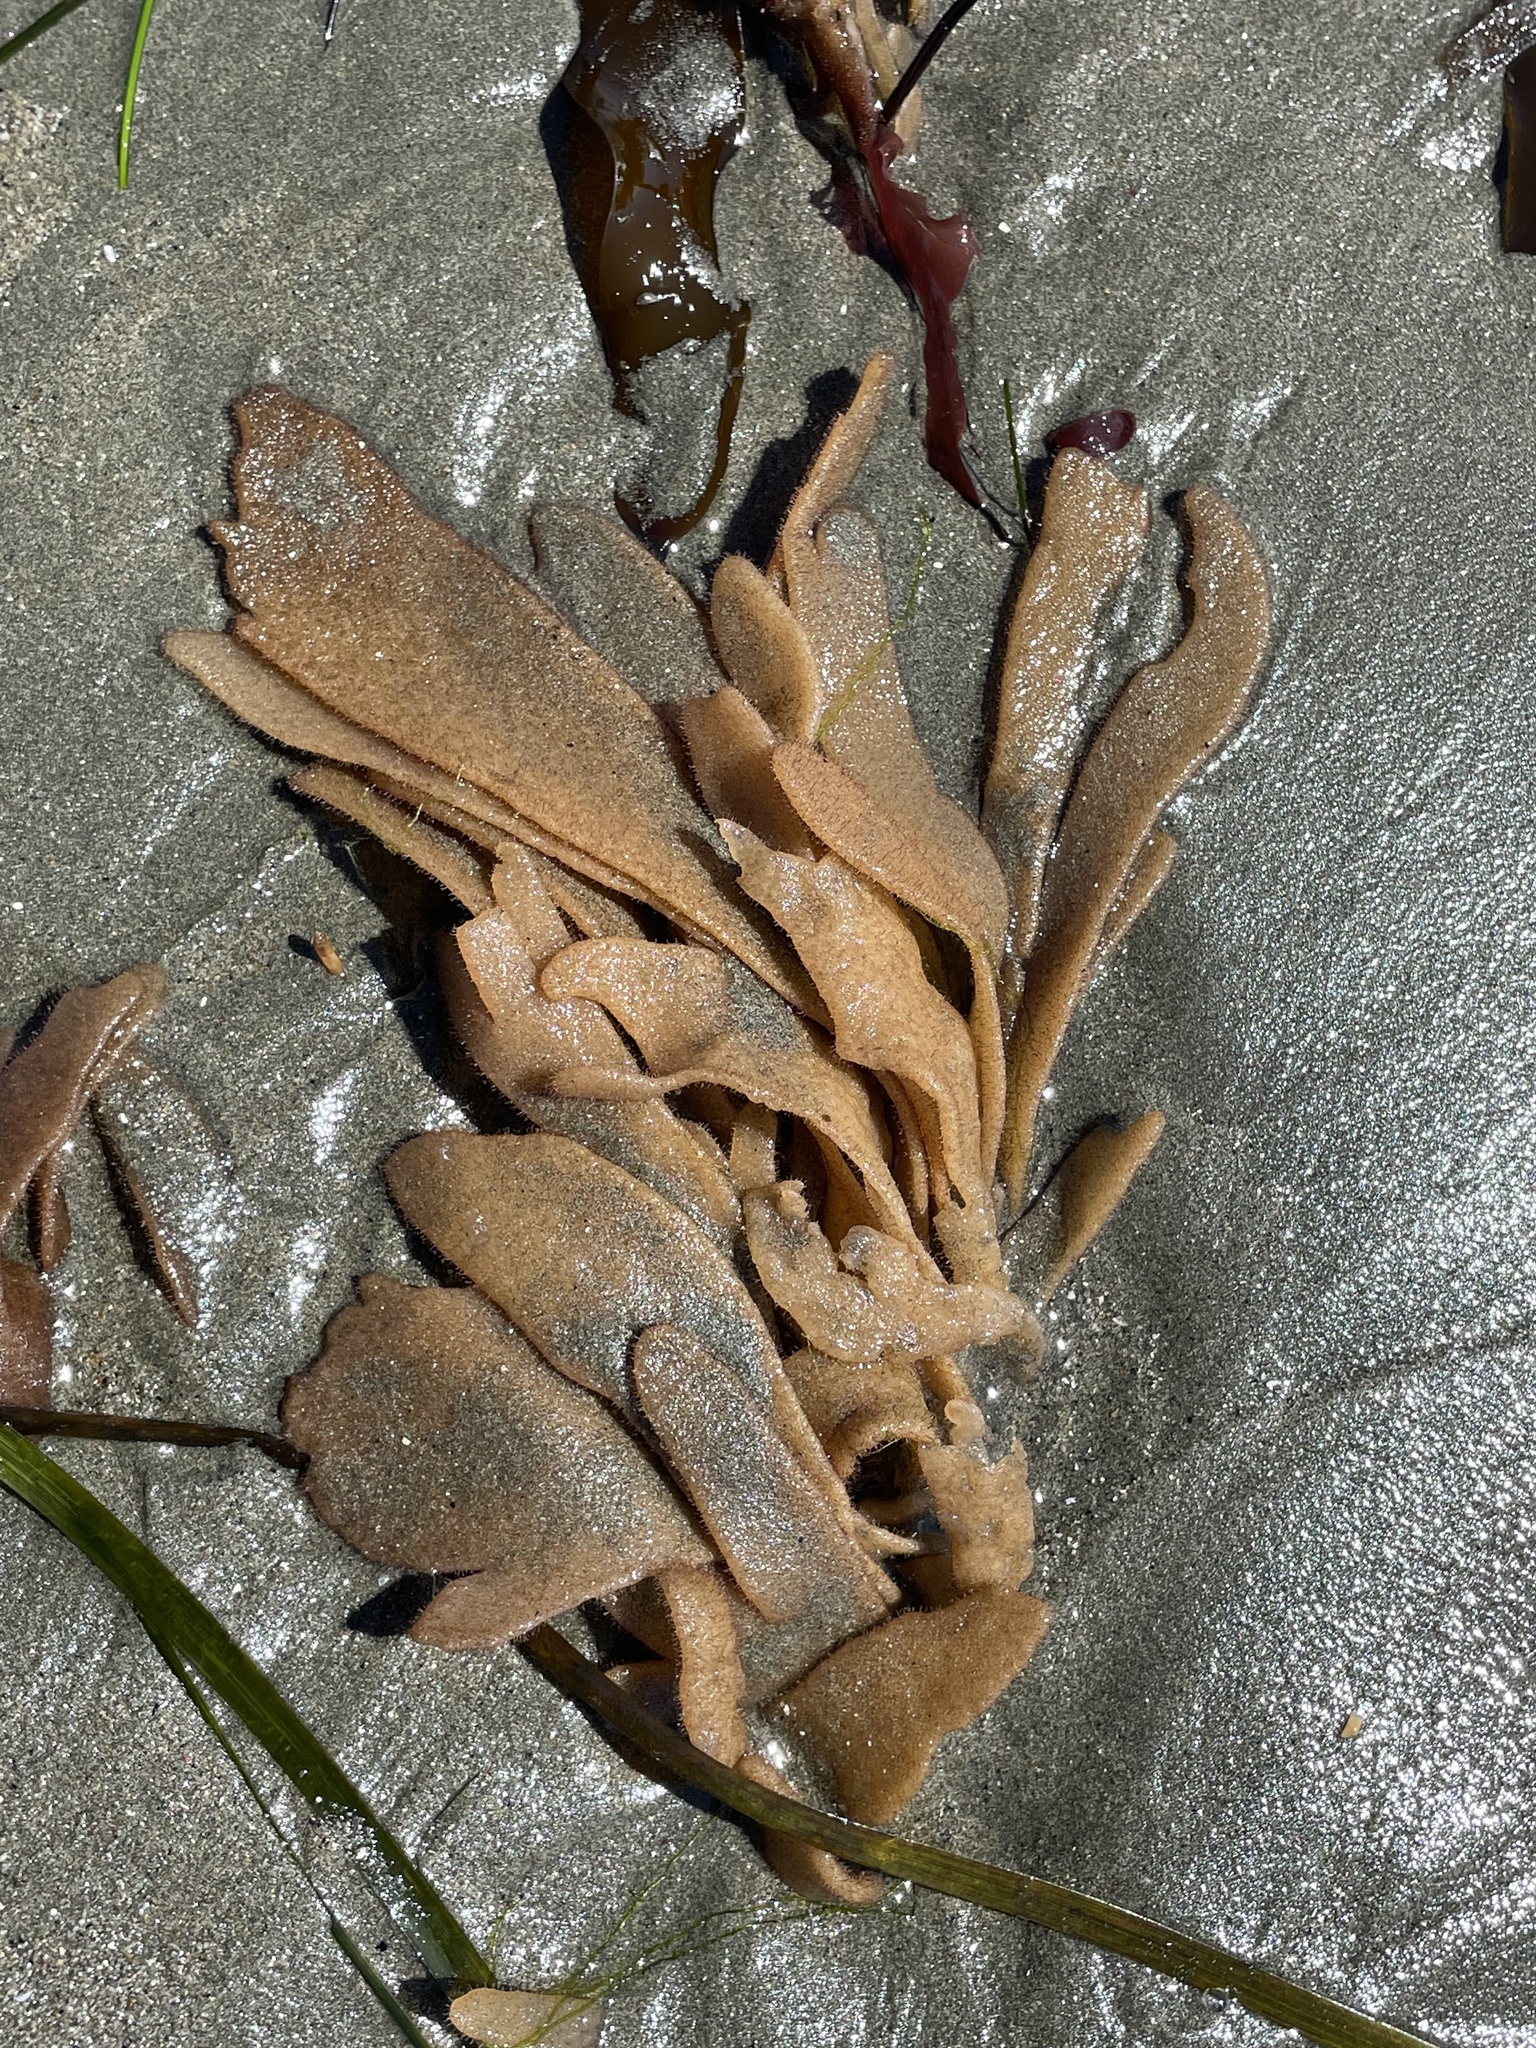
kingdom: Animalia
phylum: Bryozoa
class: Gymnolaemata
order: Ctenostomatida
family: Flustrellidridae
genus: Flustrellidra
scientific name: Flustrellidra corniculata
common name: Spiny leather bryozoan
